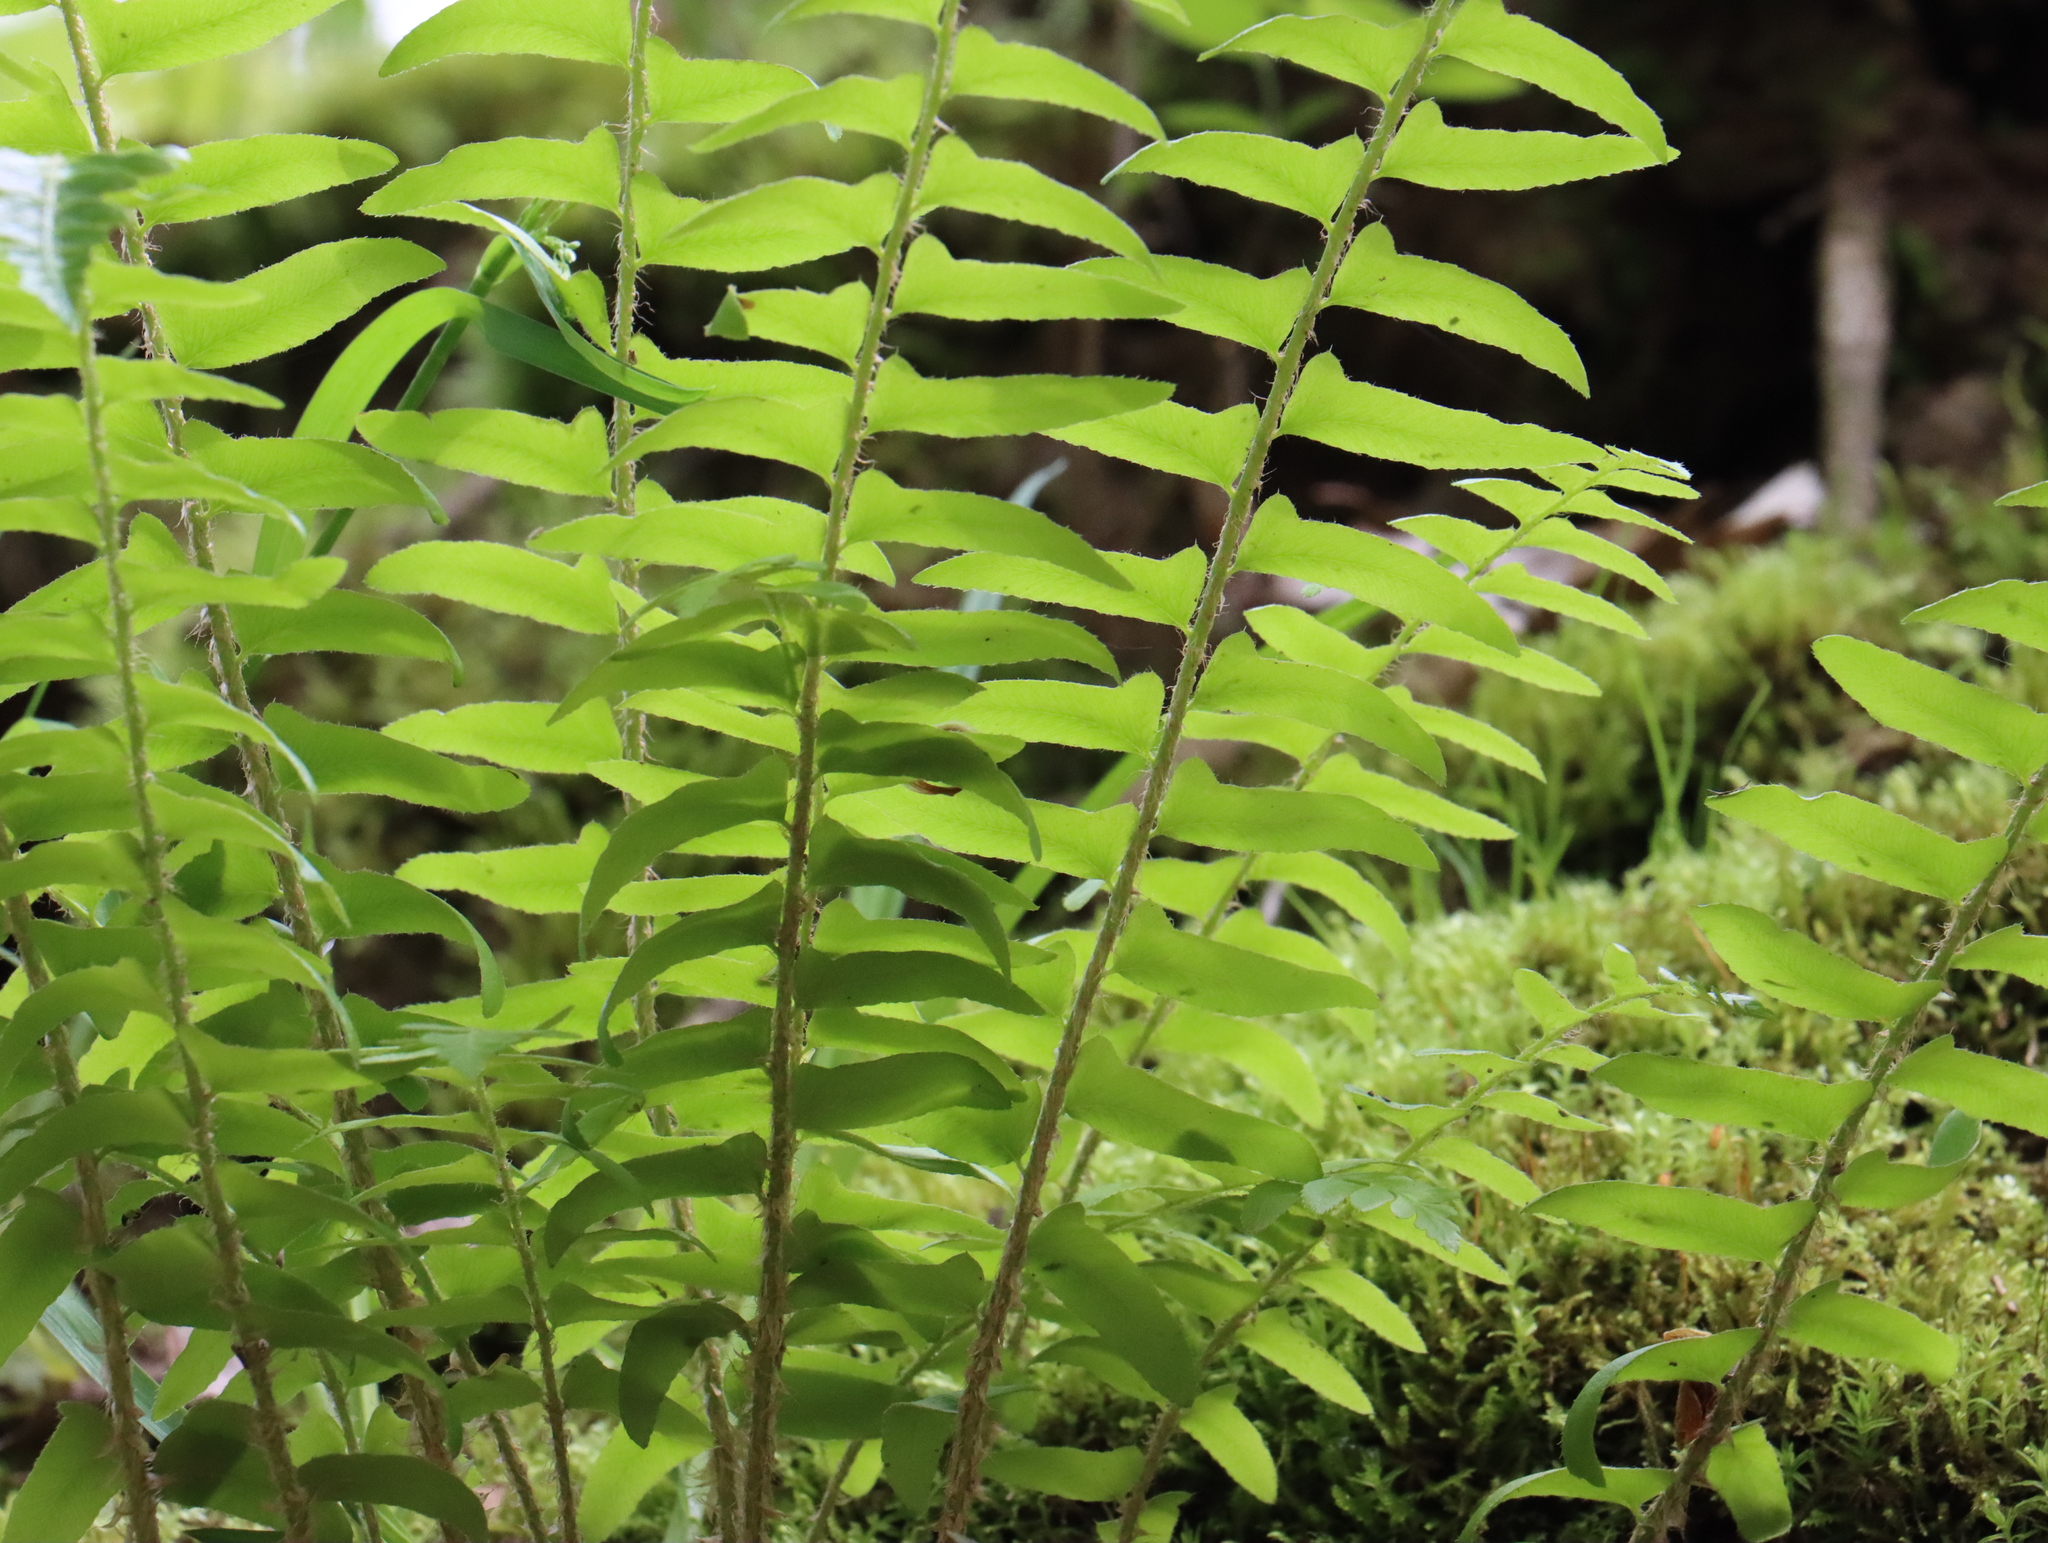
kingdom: Plantae
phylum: Tracheophyta
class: Polypodiopsida
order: Polypodiales
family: Dryopteridaceae
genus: Polystichum
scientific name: Polystichum acrostichoides
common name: Christmas fern
